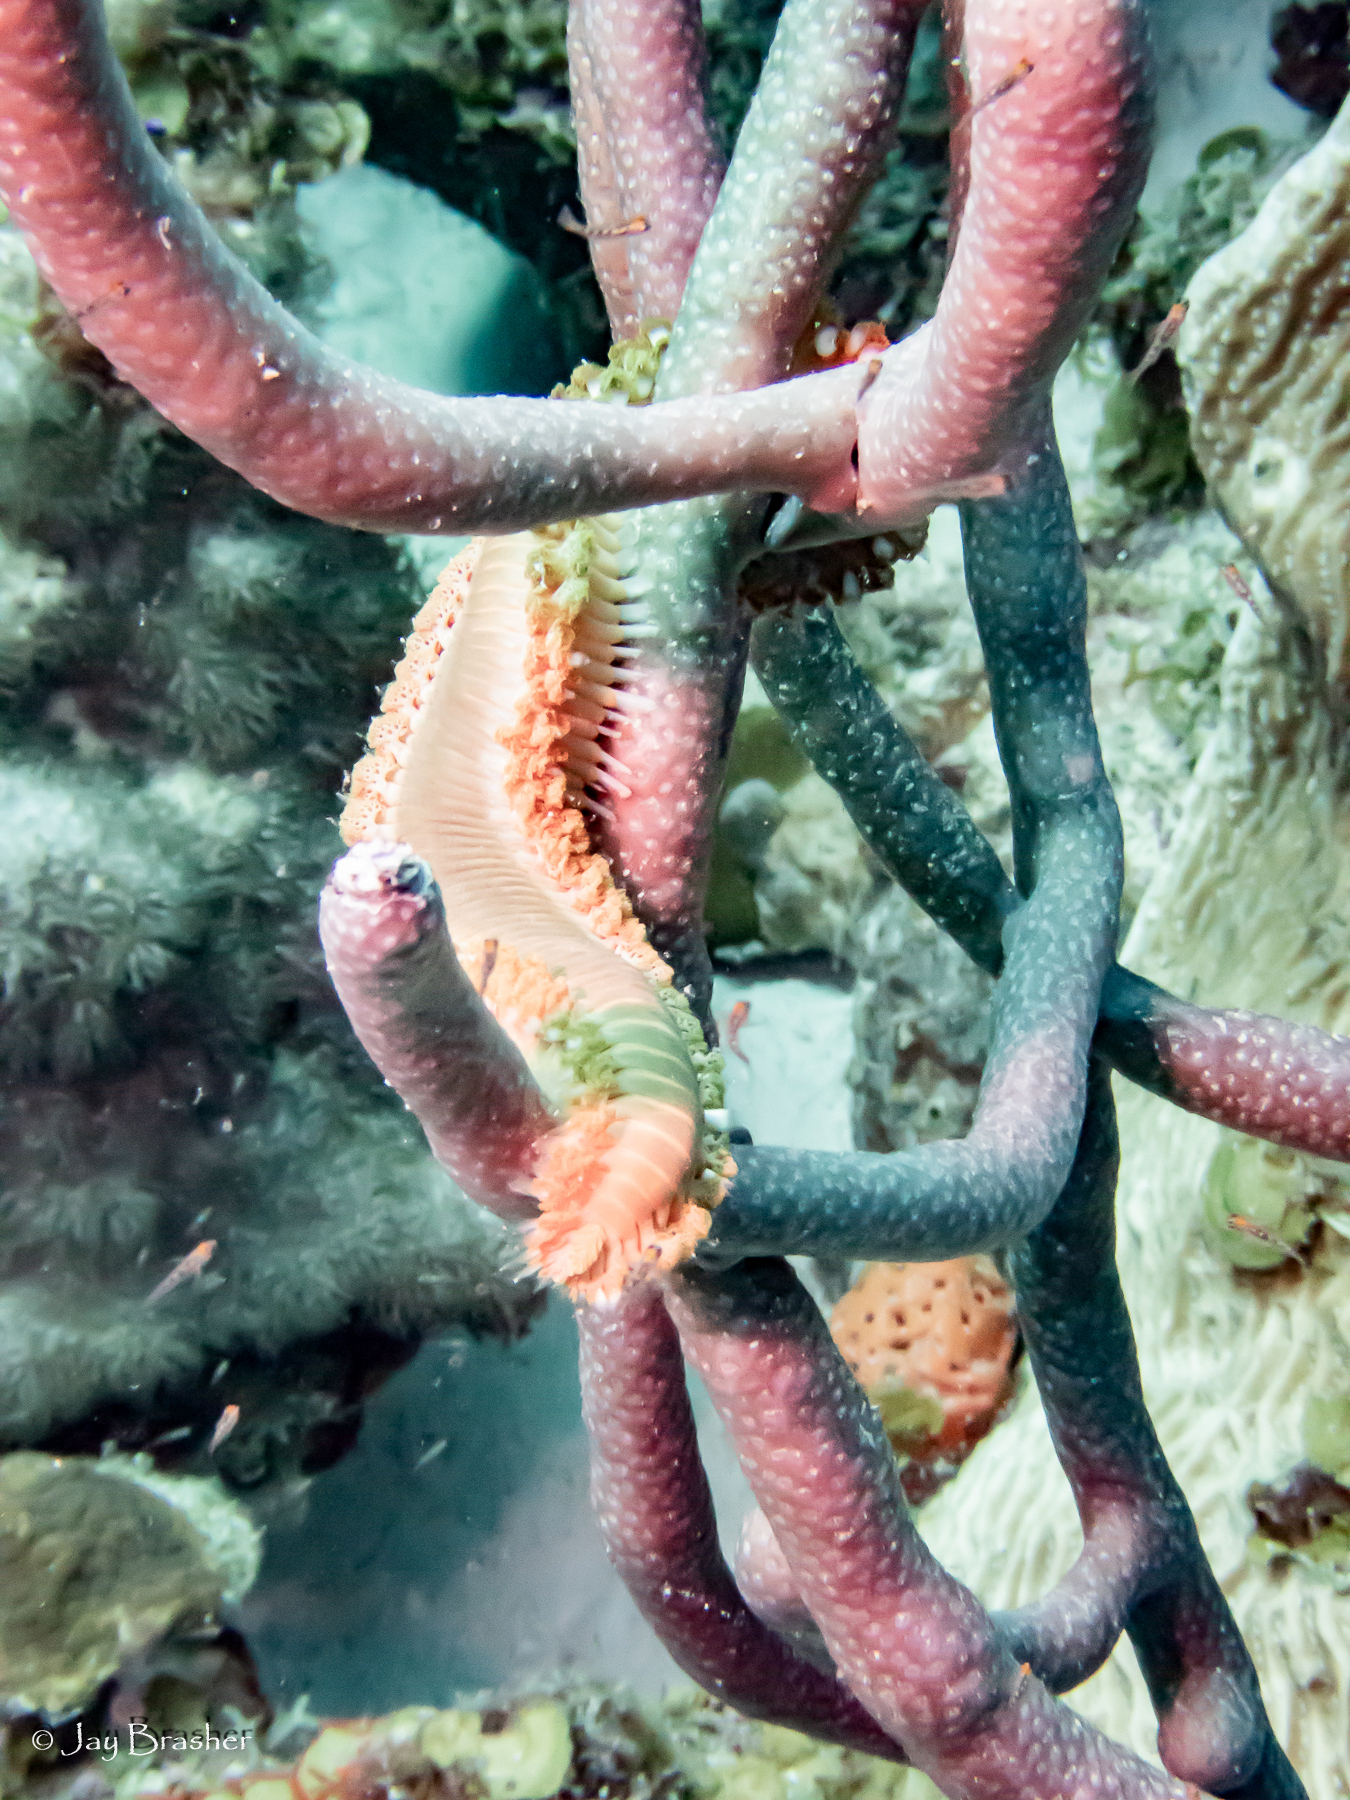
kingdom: Animalia
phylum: Annelida
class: Polychaeta
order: Amphinomida
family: Amphinomidae
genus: Hermodice
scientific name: Hermodice carunculata
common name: Bearded fireworm
